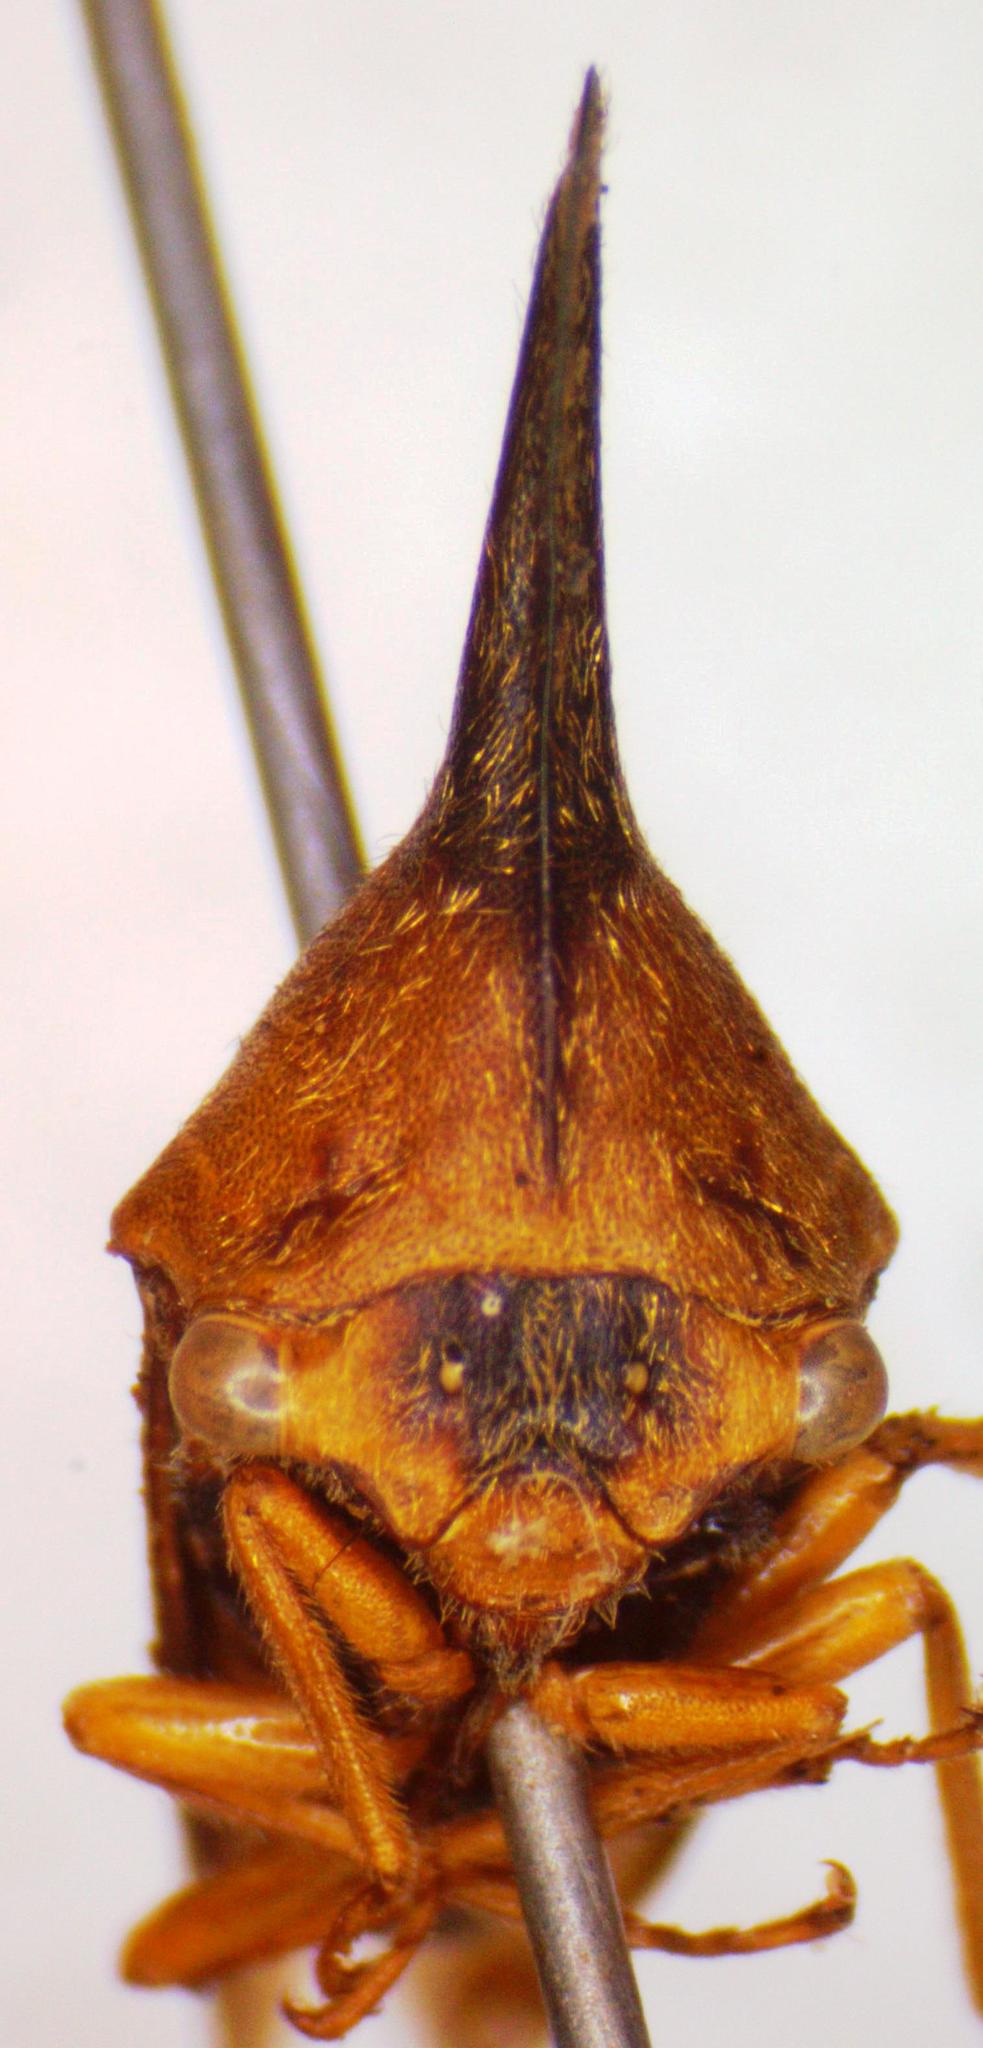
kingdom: Animalia
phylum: Arthropoda
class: Insecta
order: Hemiptera
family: Membracidae
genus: Aconophora
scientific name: Aconophora laminata
